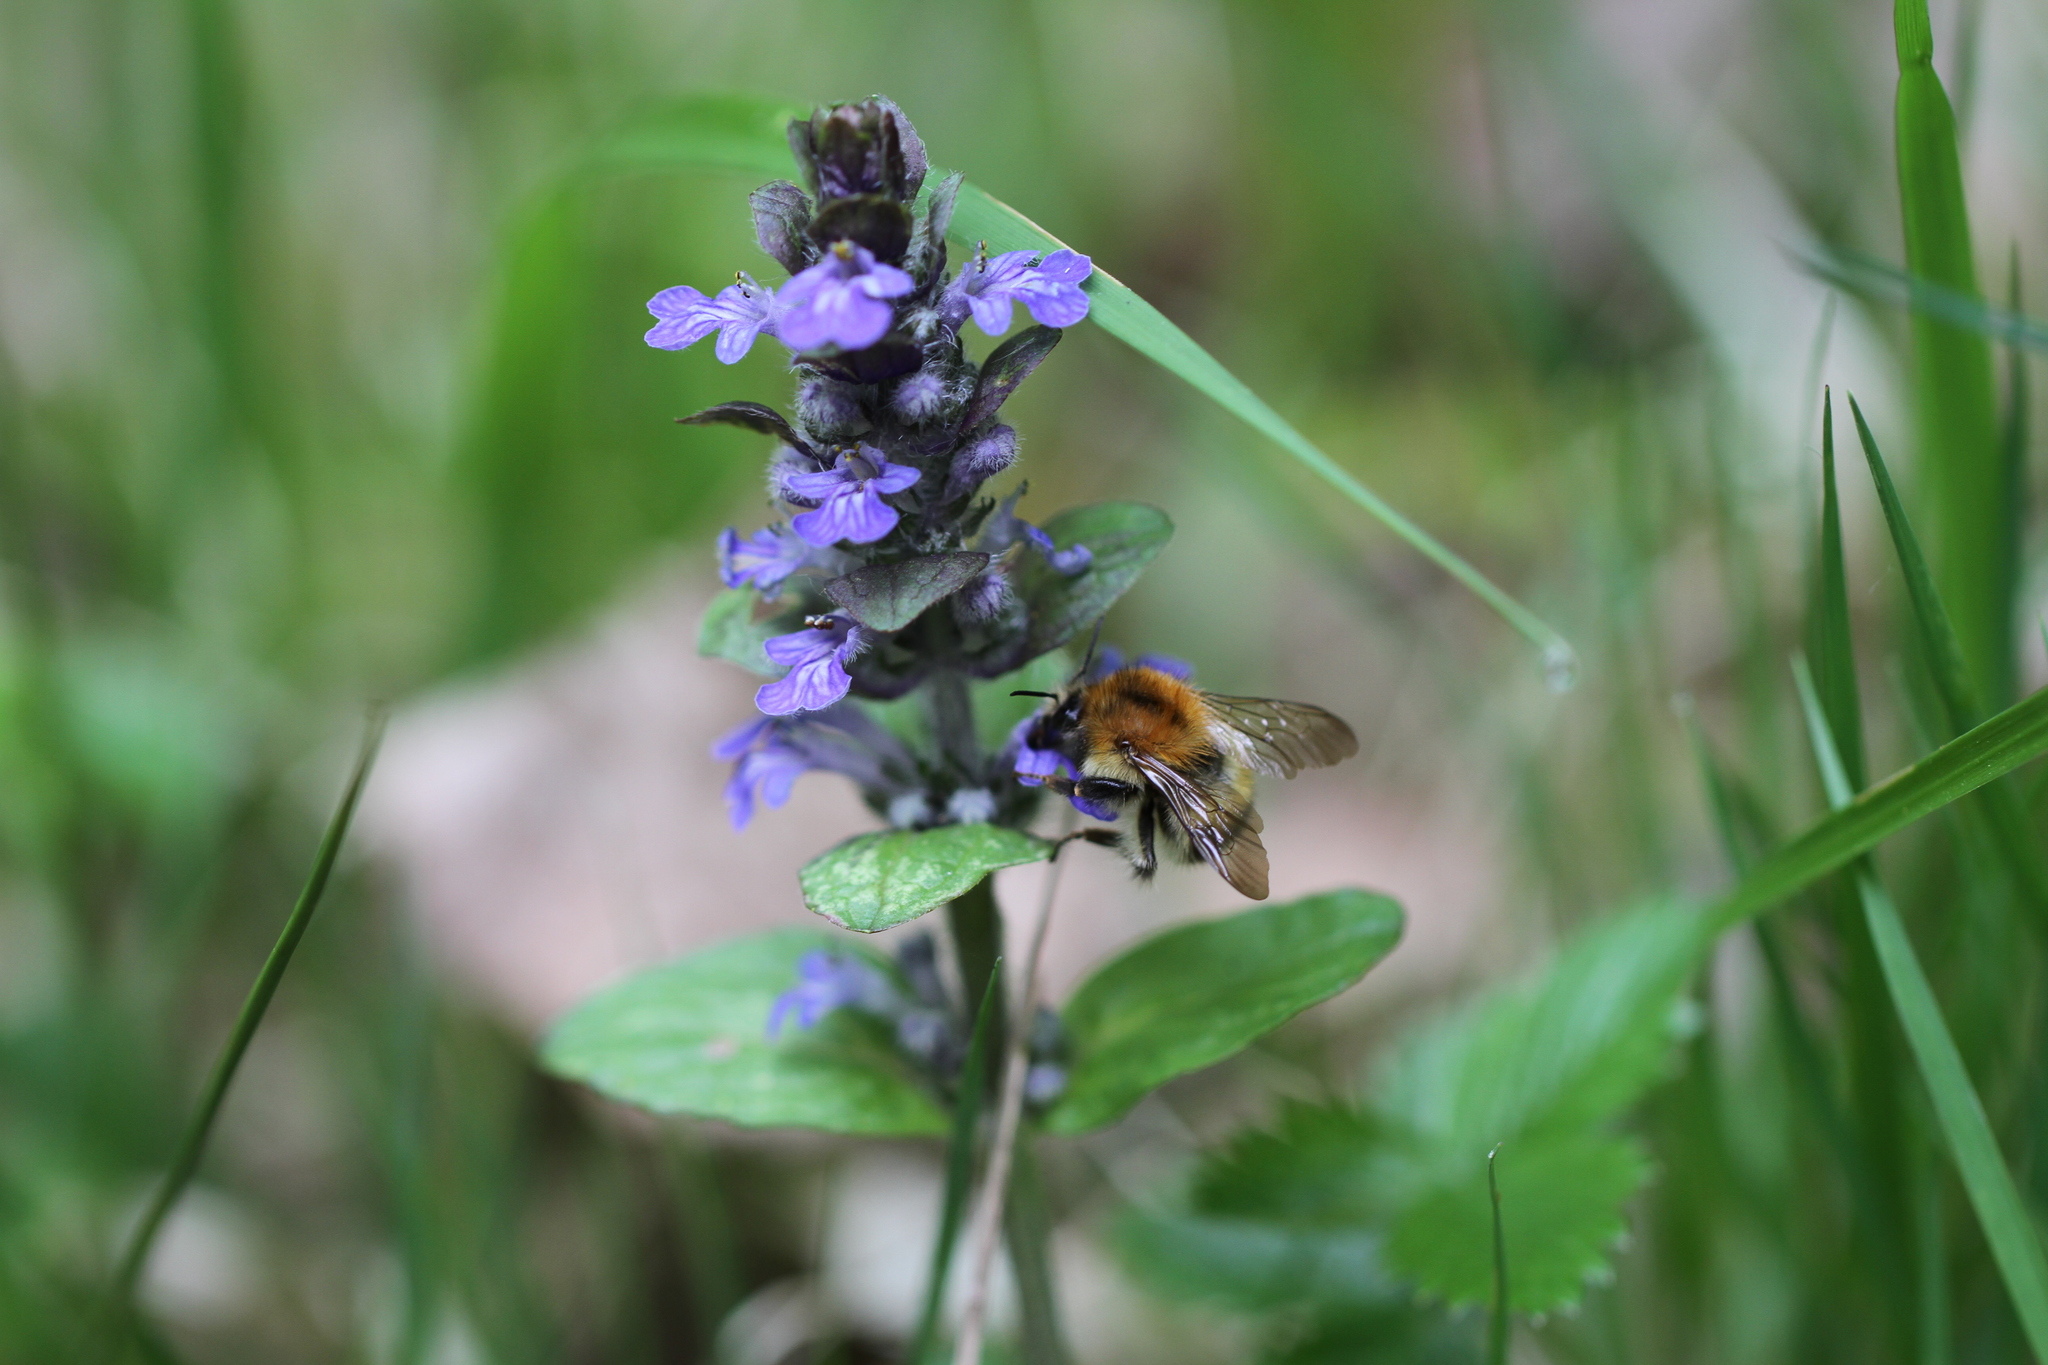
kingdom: Animalia
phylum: Arthropoda
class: Insecta
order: Hymenoptera
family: Apidae
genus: Bombus
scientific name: Bombus pascuorum
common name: Common carder bee
